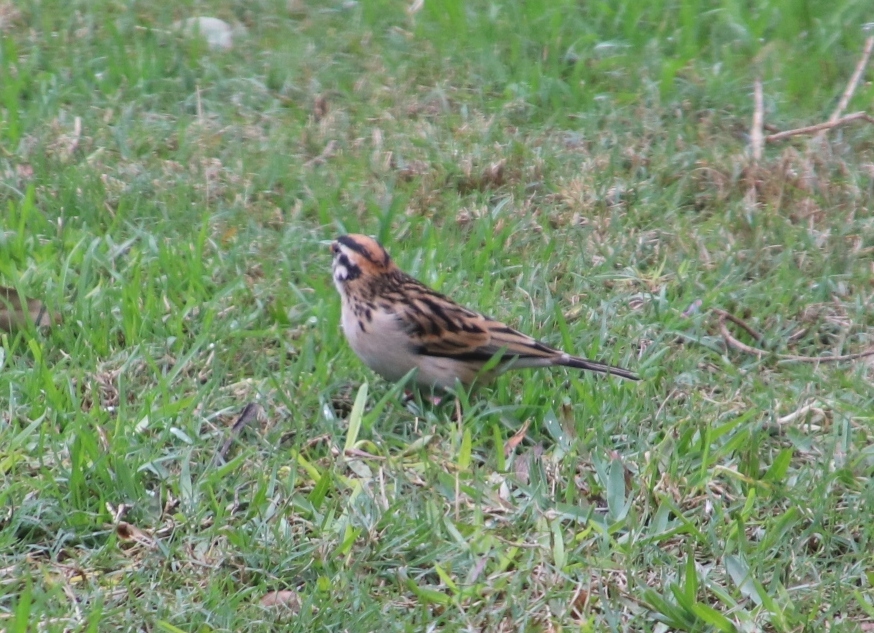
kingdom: Animalia
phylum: Chordata
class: Aves
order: Passeriformes
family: Viduidae
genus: Vidua
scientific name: Vidua macroura
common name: Pin-tailed whydah
